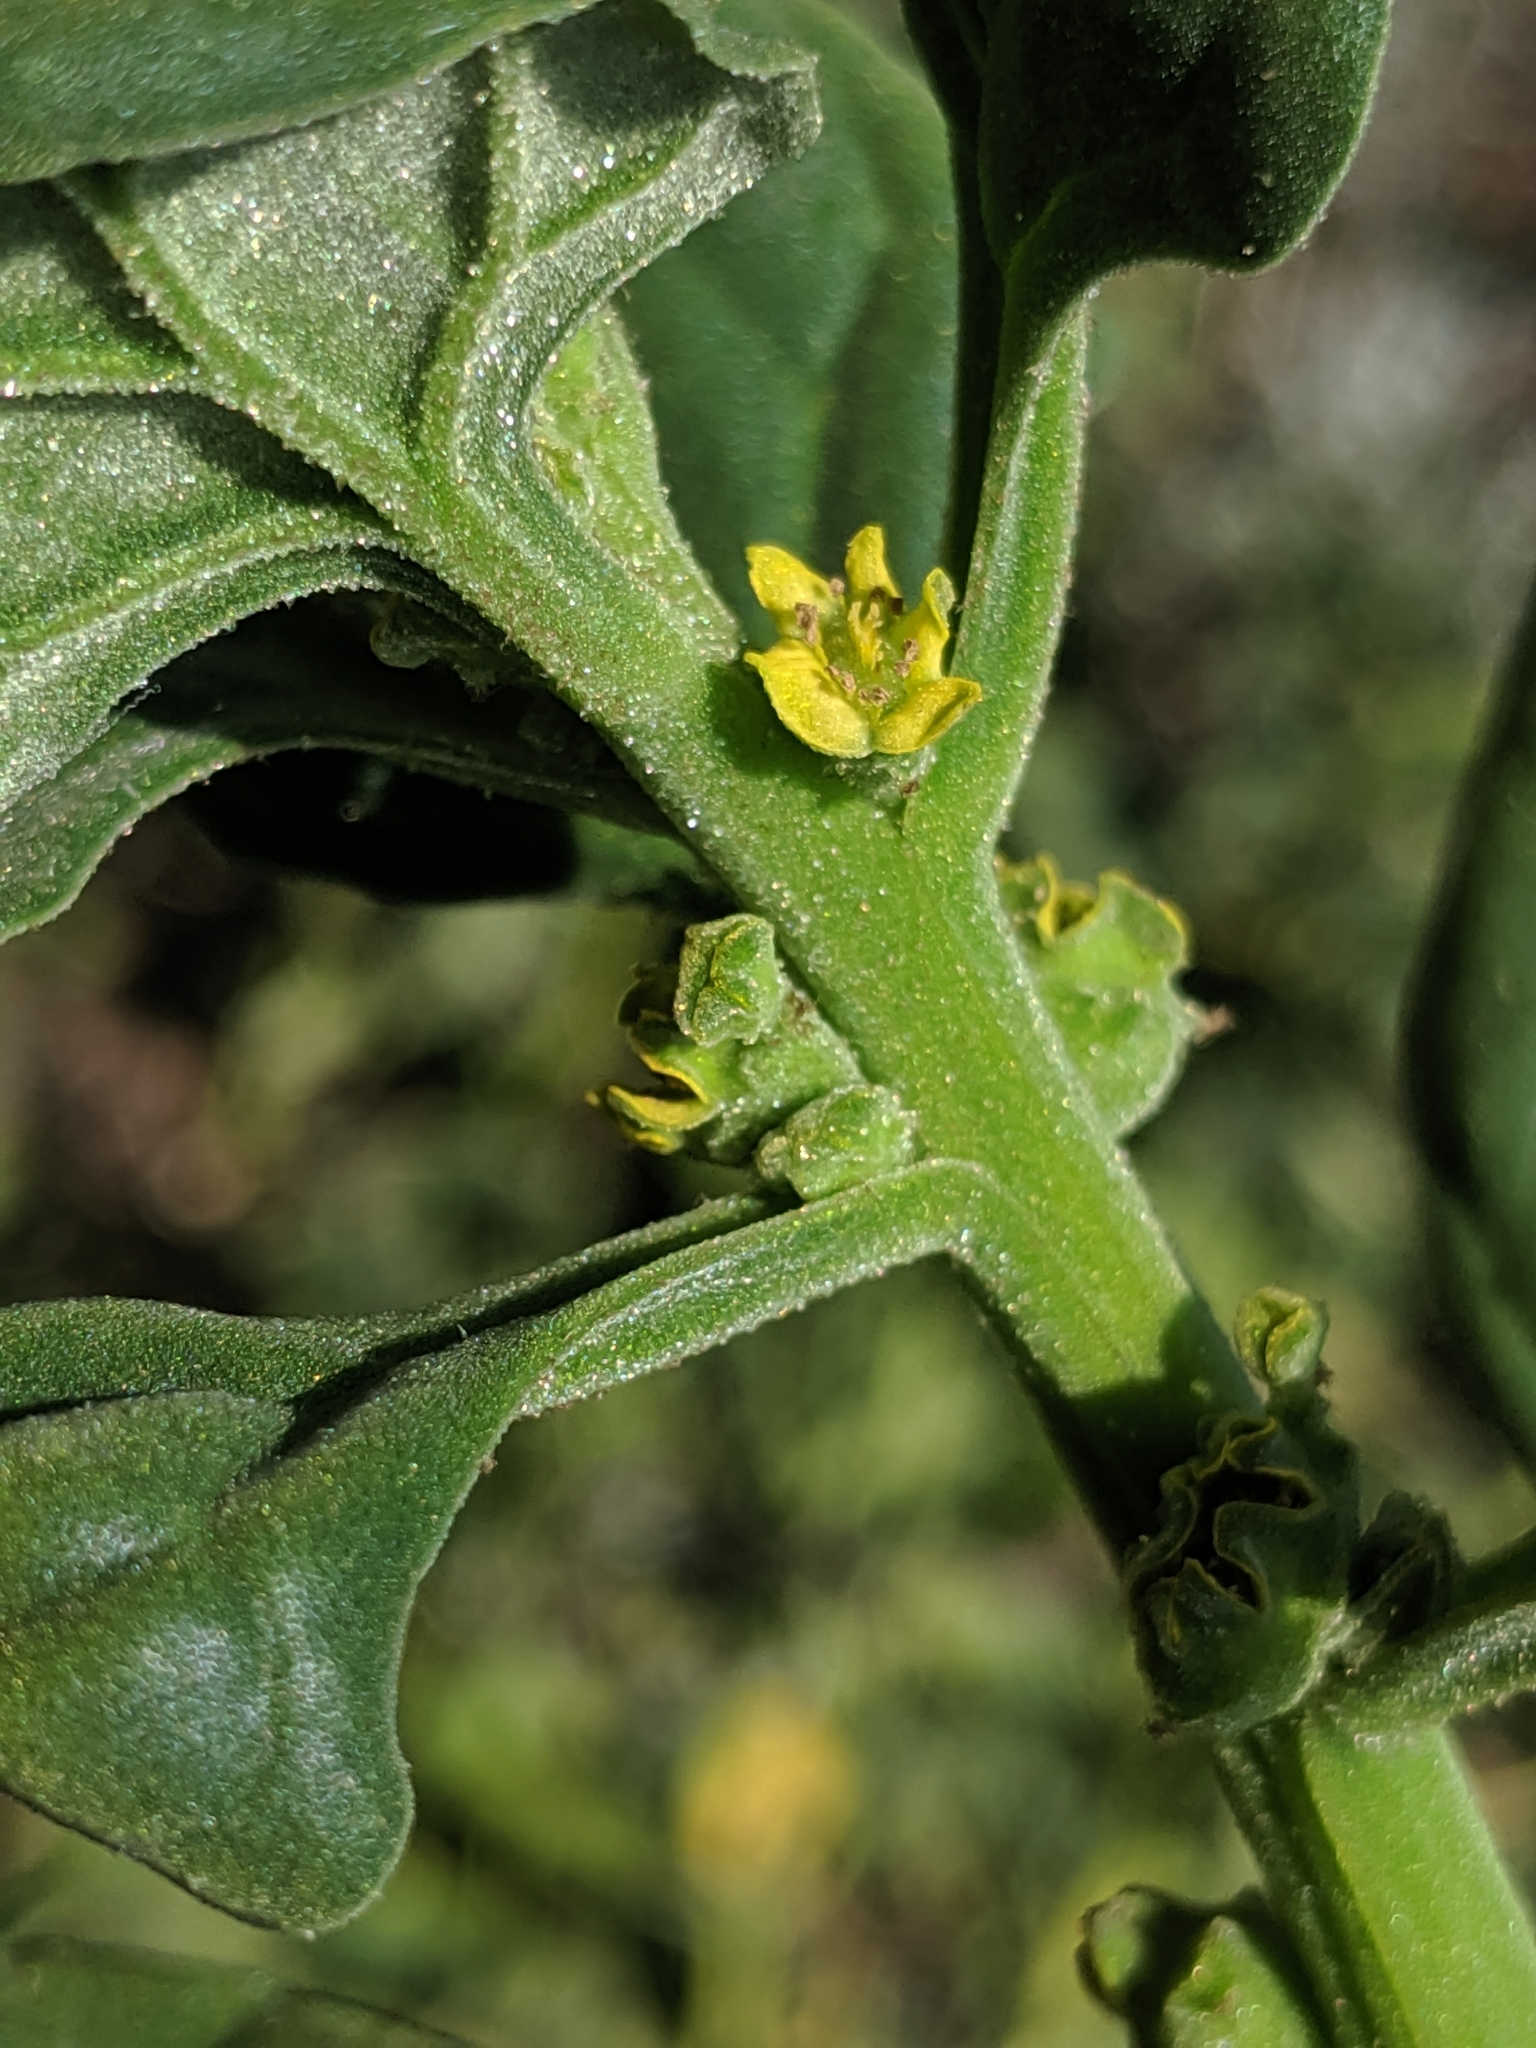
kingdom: Plantae
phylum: Tracheophyta
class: Magnoliopsida
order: Caryophyllales
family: Aizoaceae
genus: Tetragonia
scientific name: Tetragonia tetragonoides
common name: New zealand-spinach
